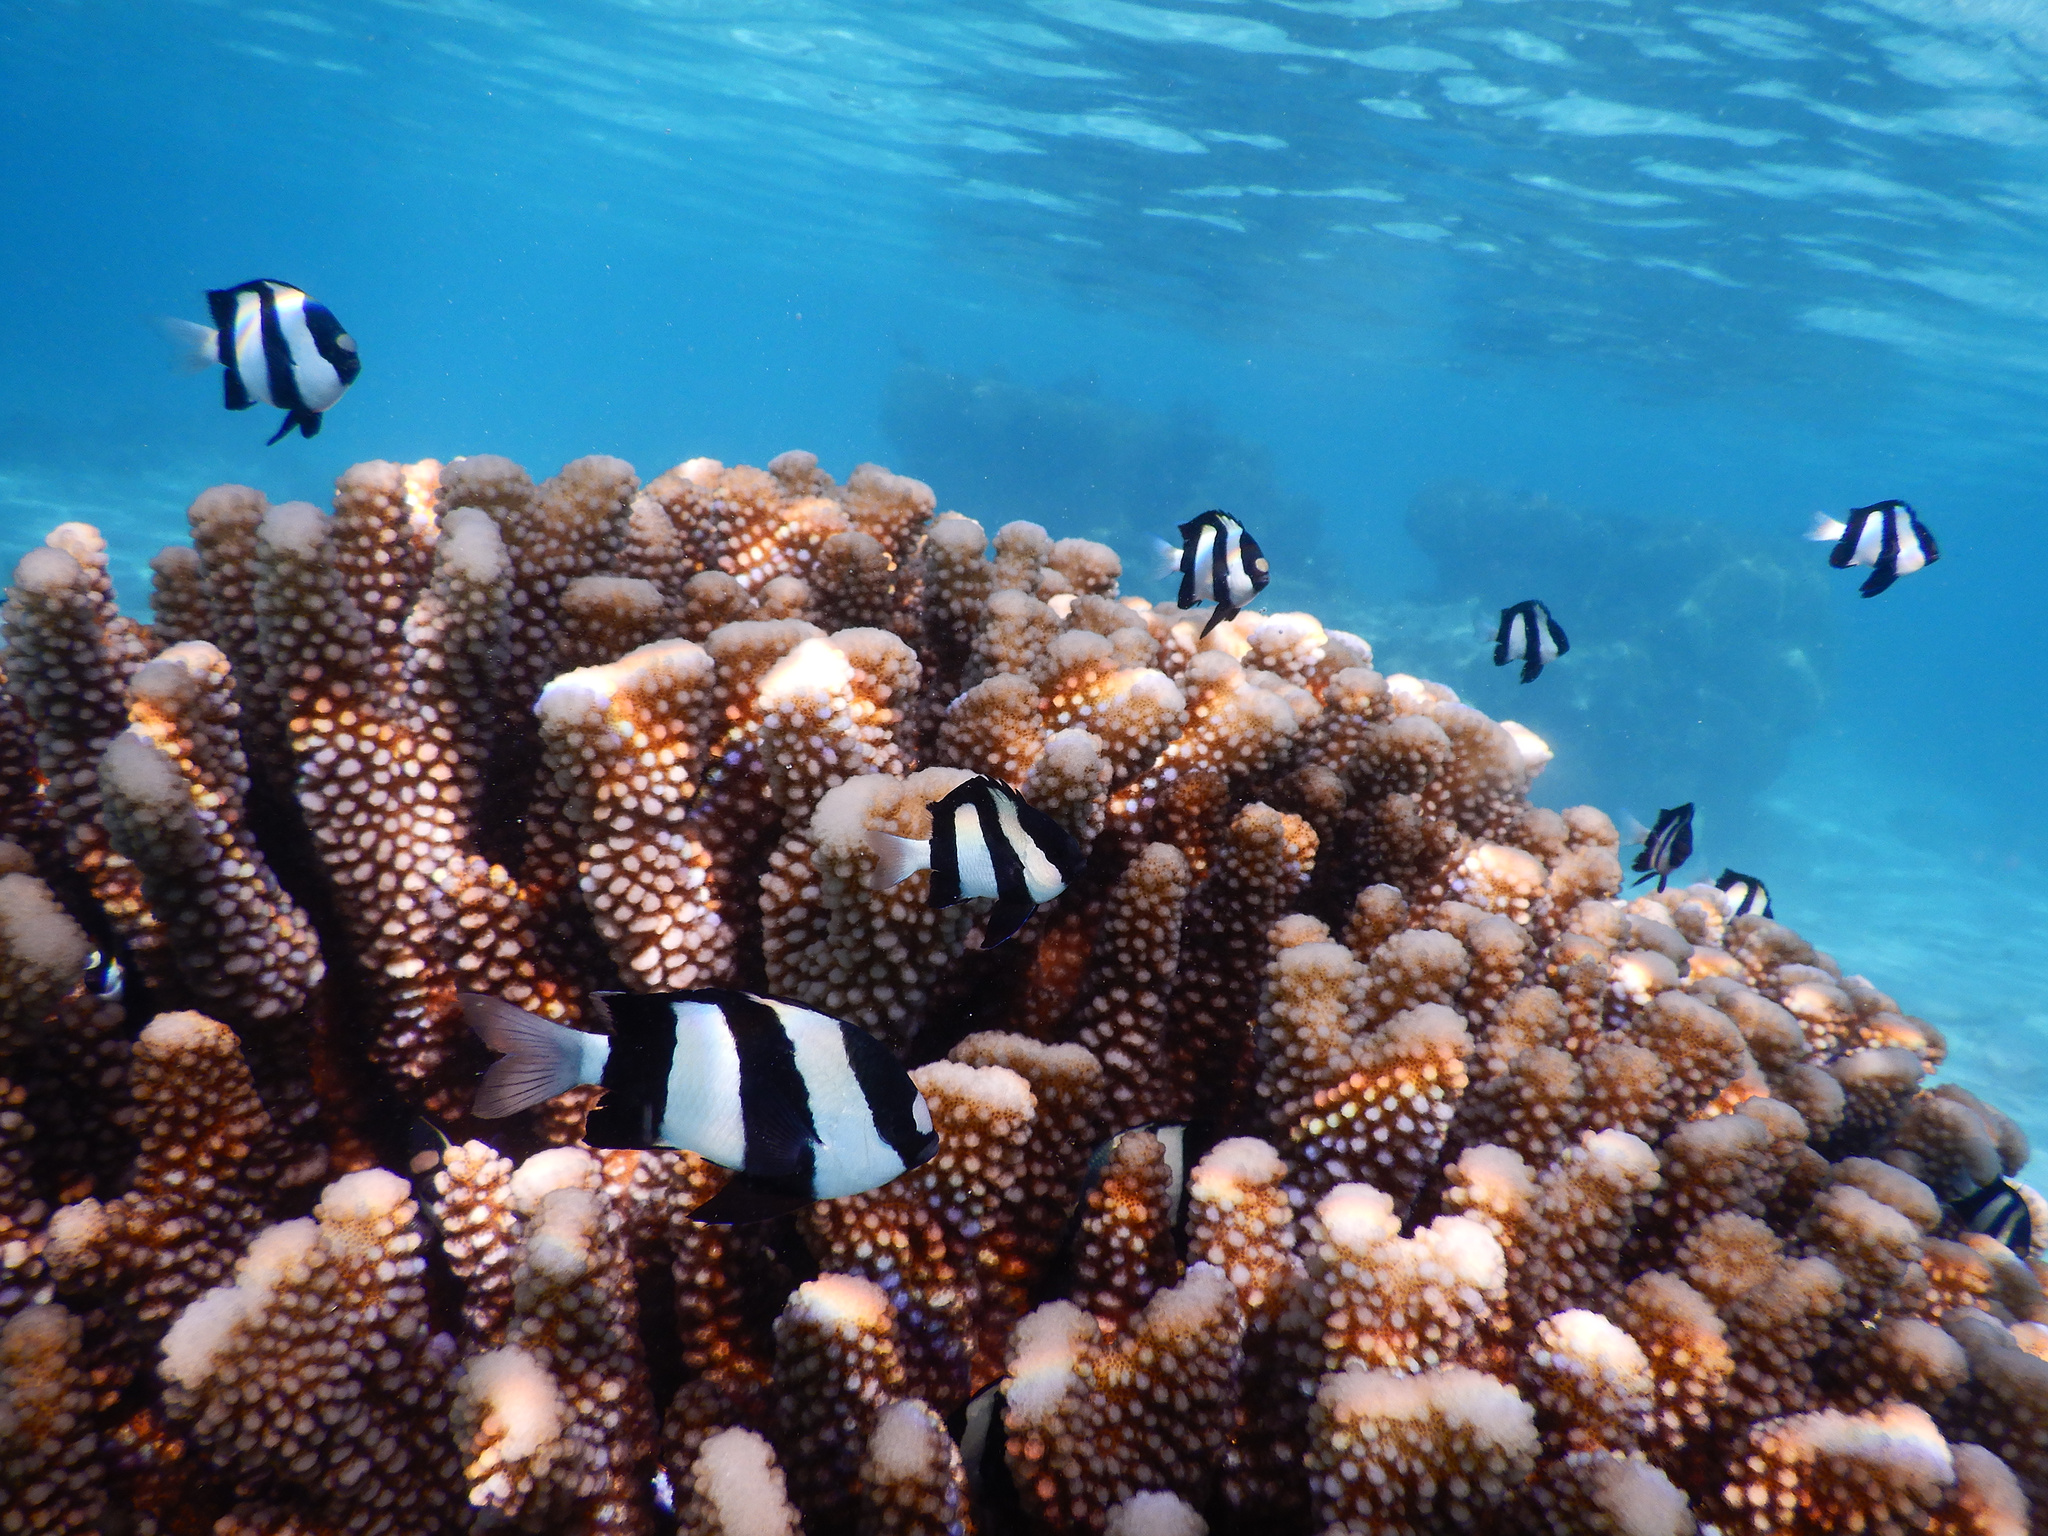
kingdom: Animalia
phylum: Chordata
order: Perciformes
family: Pomacentridae
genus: Dascyllus
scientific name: Dascyllus aruanus
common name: Humbug dascyllus
